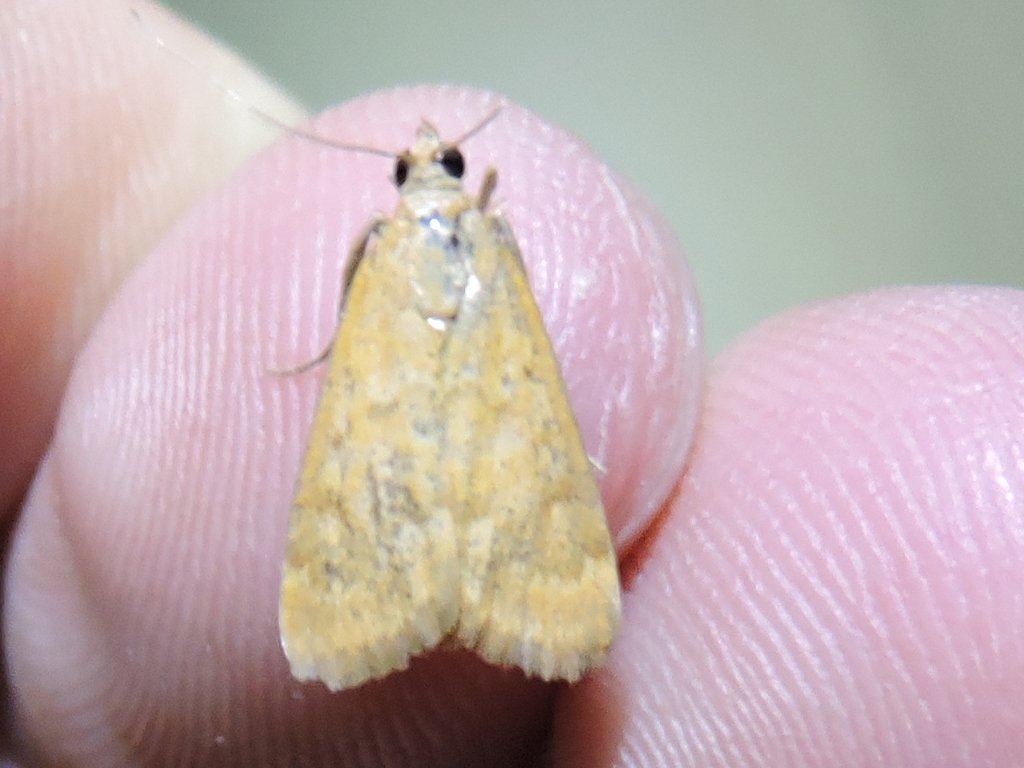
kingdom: Animalia
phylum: Arthropoda
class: Insecta
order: Lepidoptera
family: Crambidae
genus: Achyra
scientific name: Achyra rantalis
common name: Garden webworm
